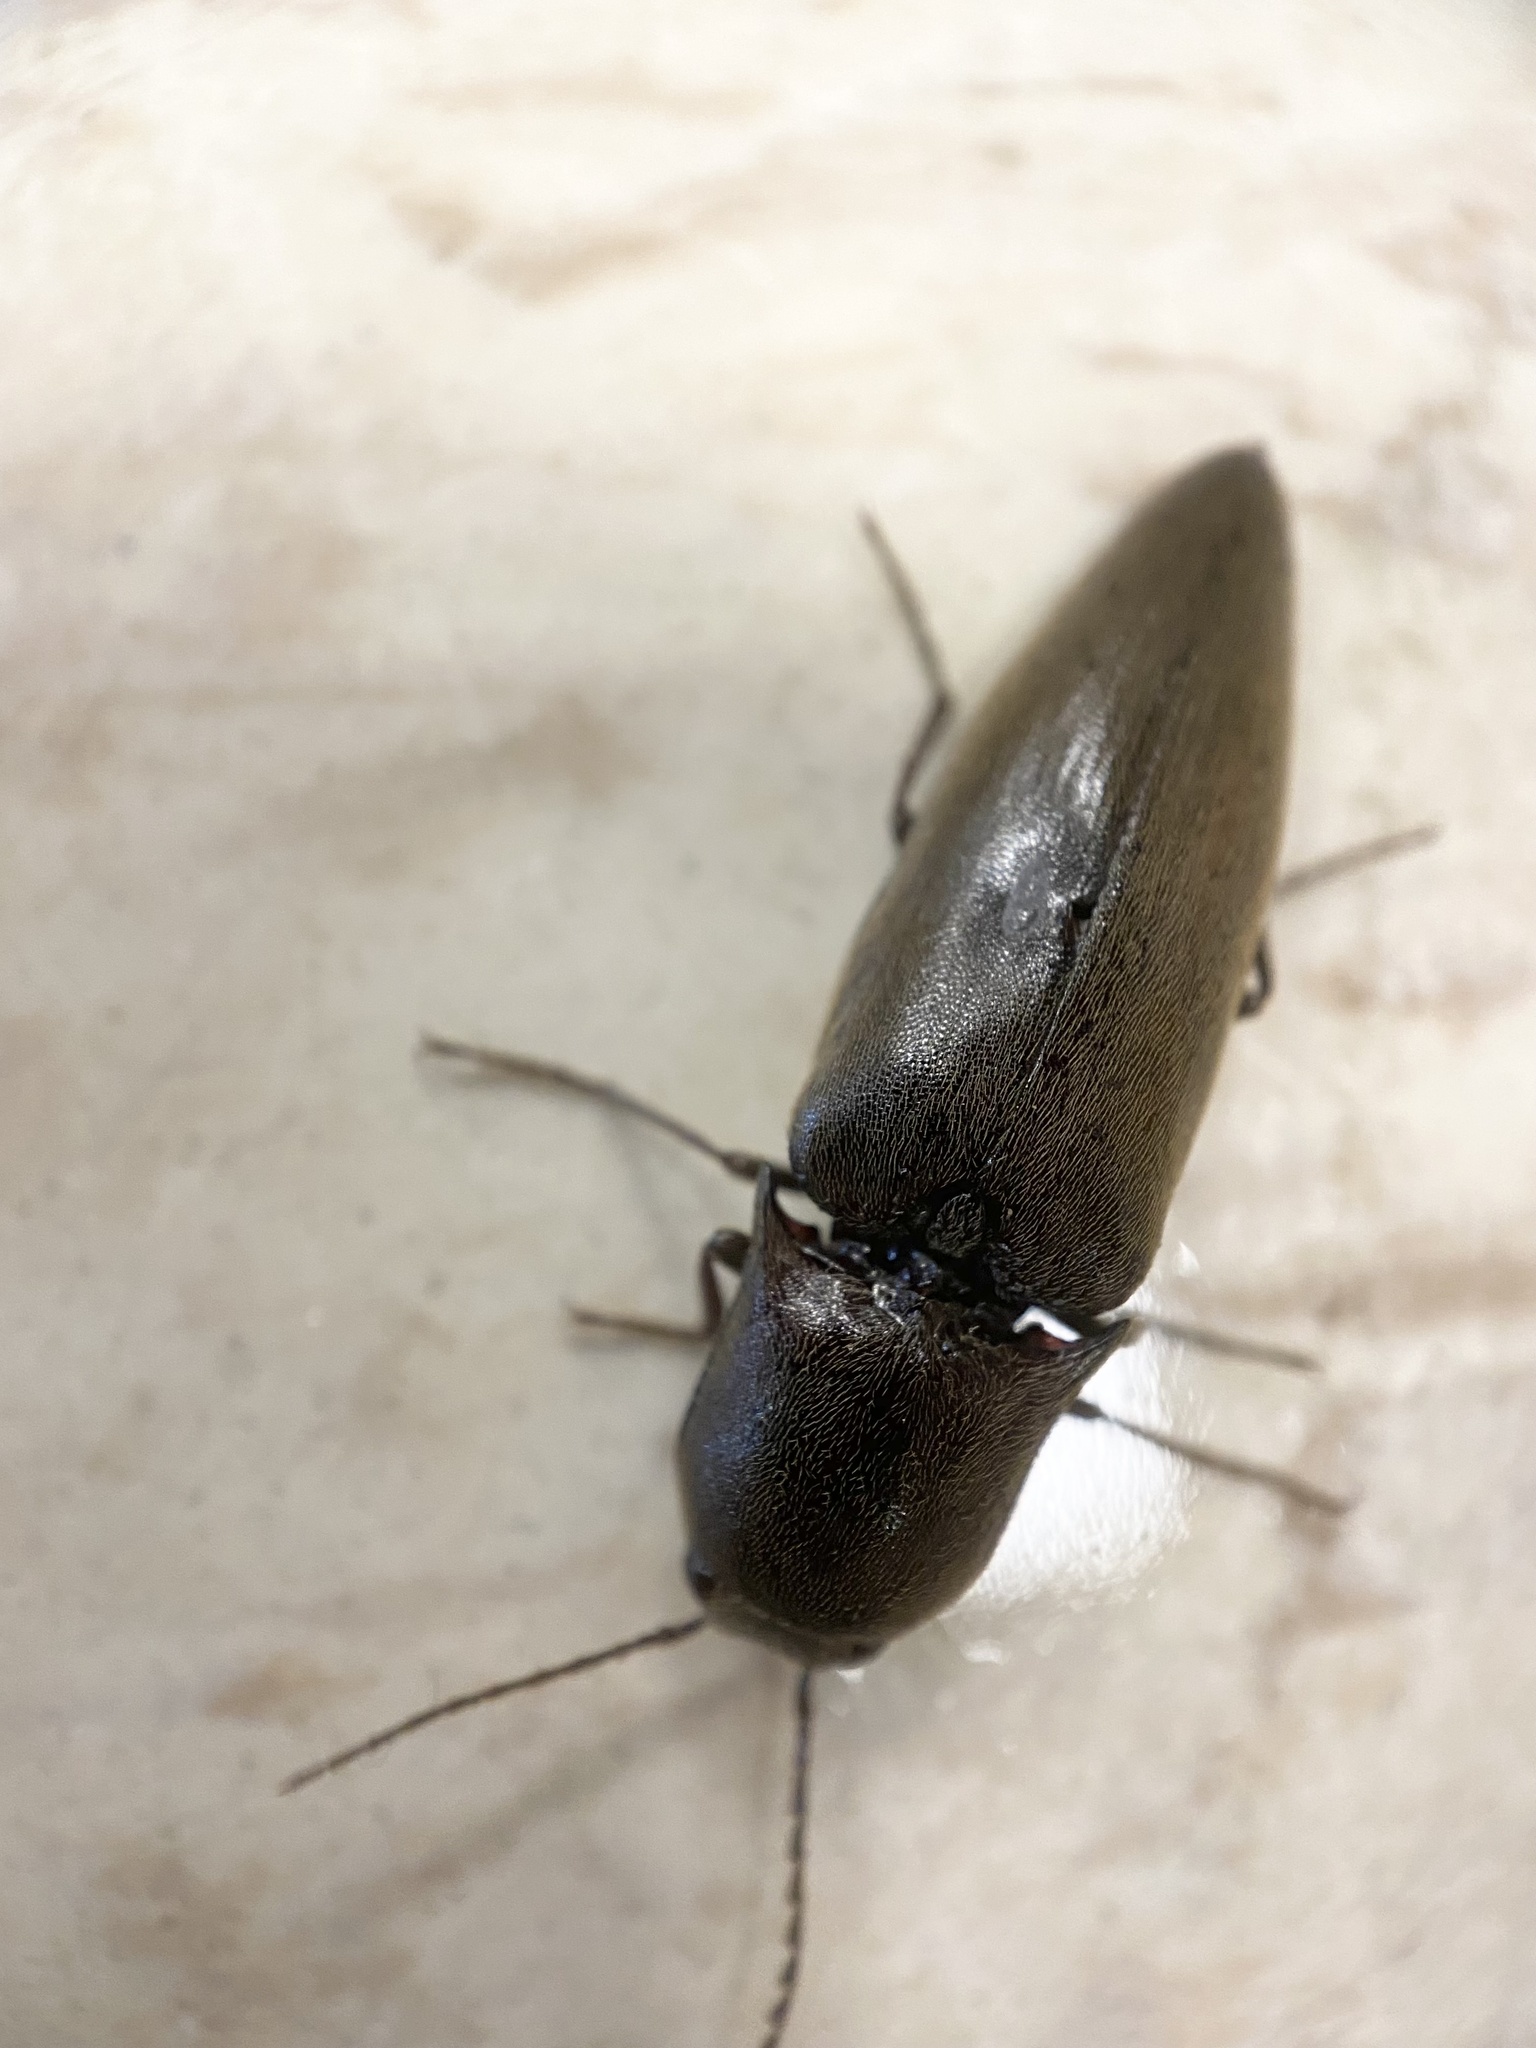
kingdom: Animalia
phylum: Arthropoda
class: Insecta
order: Coleoptera
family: Elateridae
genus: Orthostethus
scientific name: Orthostethus infuscatus
